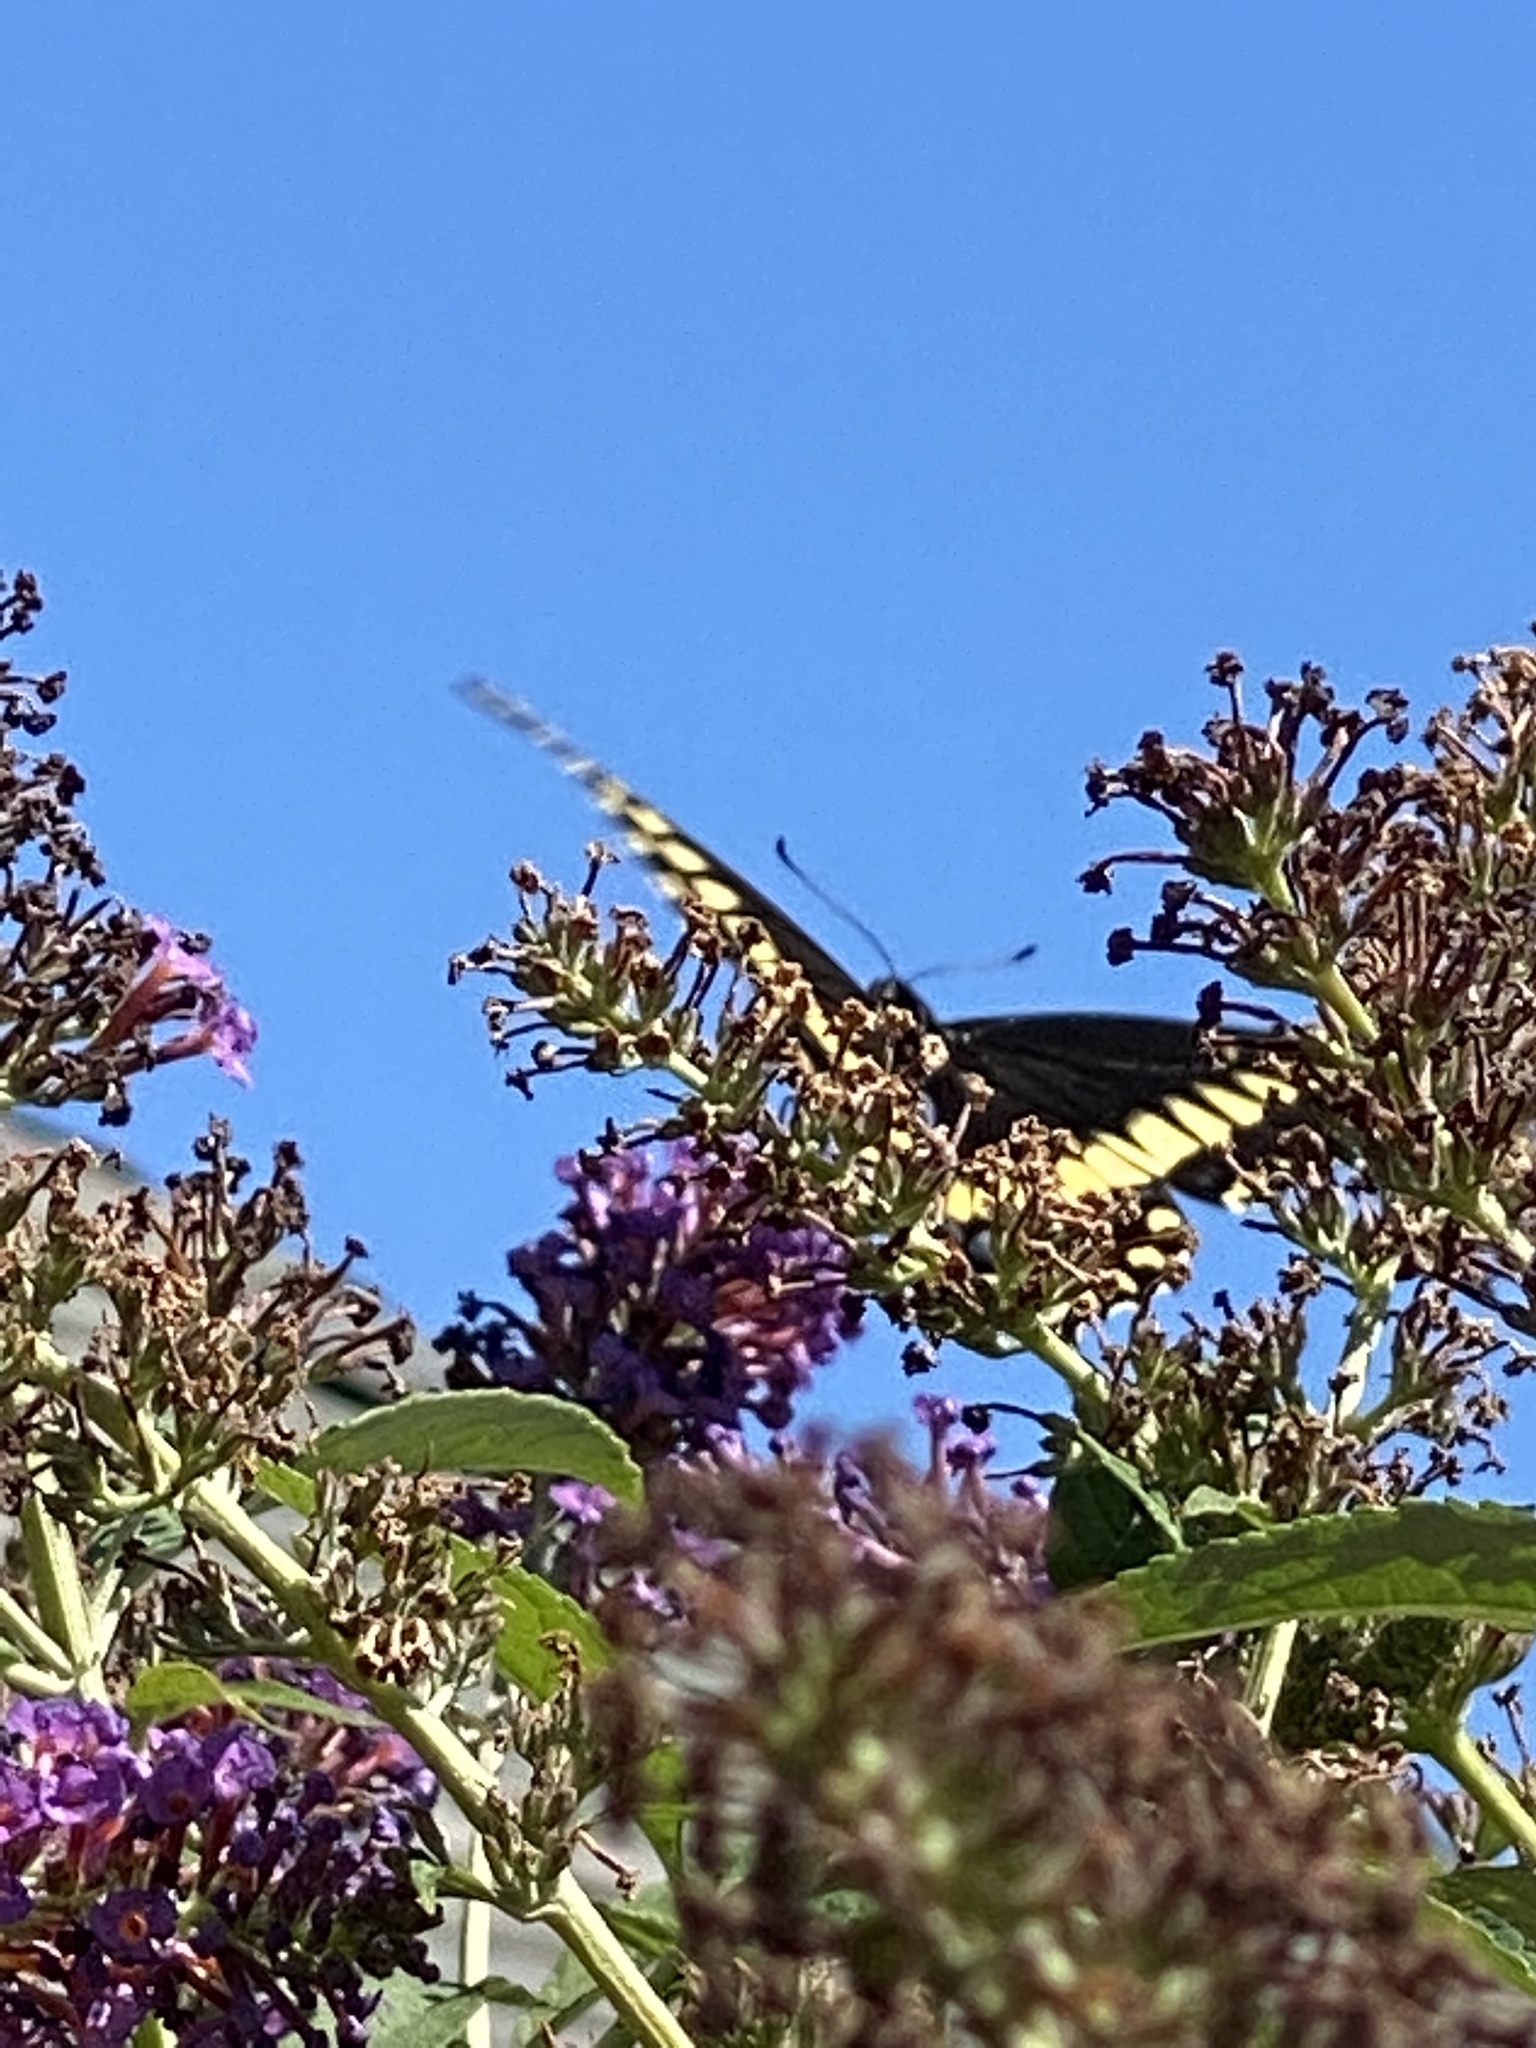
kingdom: Animalia
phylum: Arthropoda
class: Insecta
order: Lepidoptera
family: Papilionidae
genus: Papilio
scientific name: Papilio polyxenes
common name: Black swallowtail
